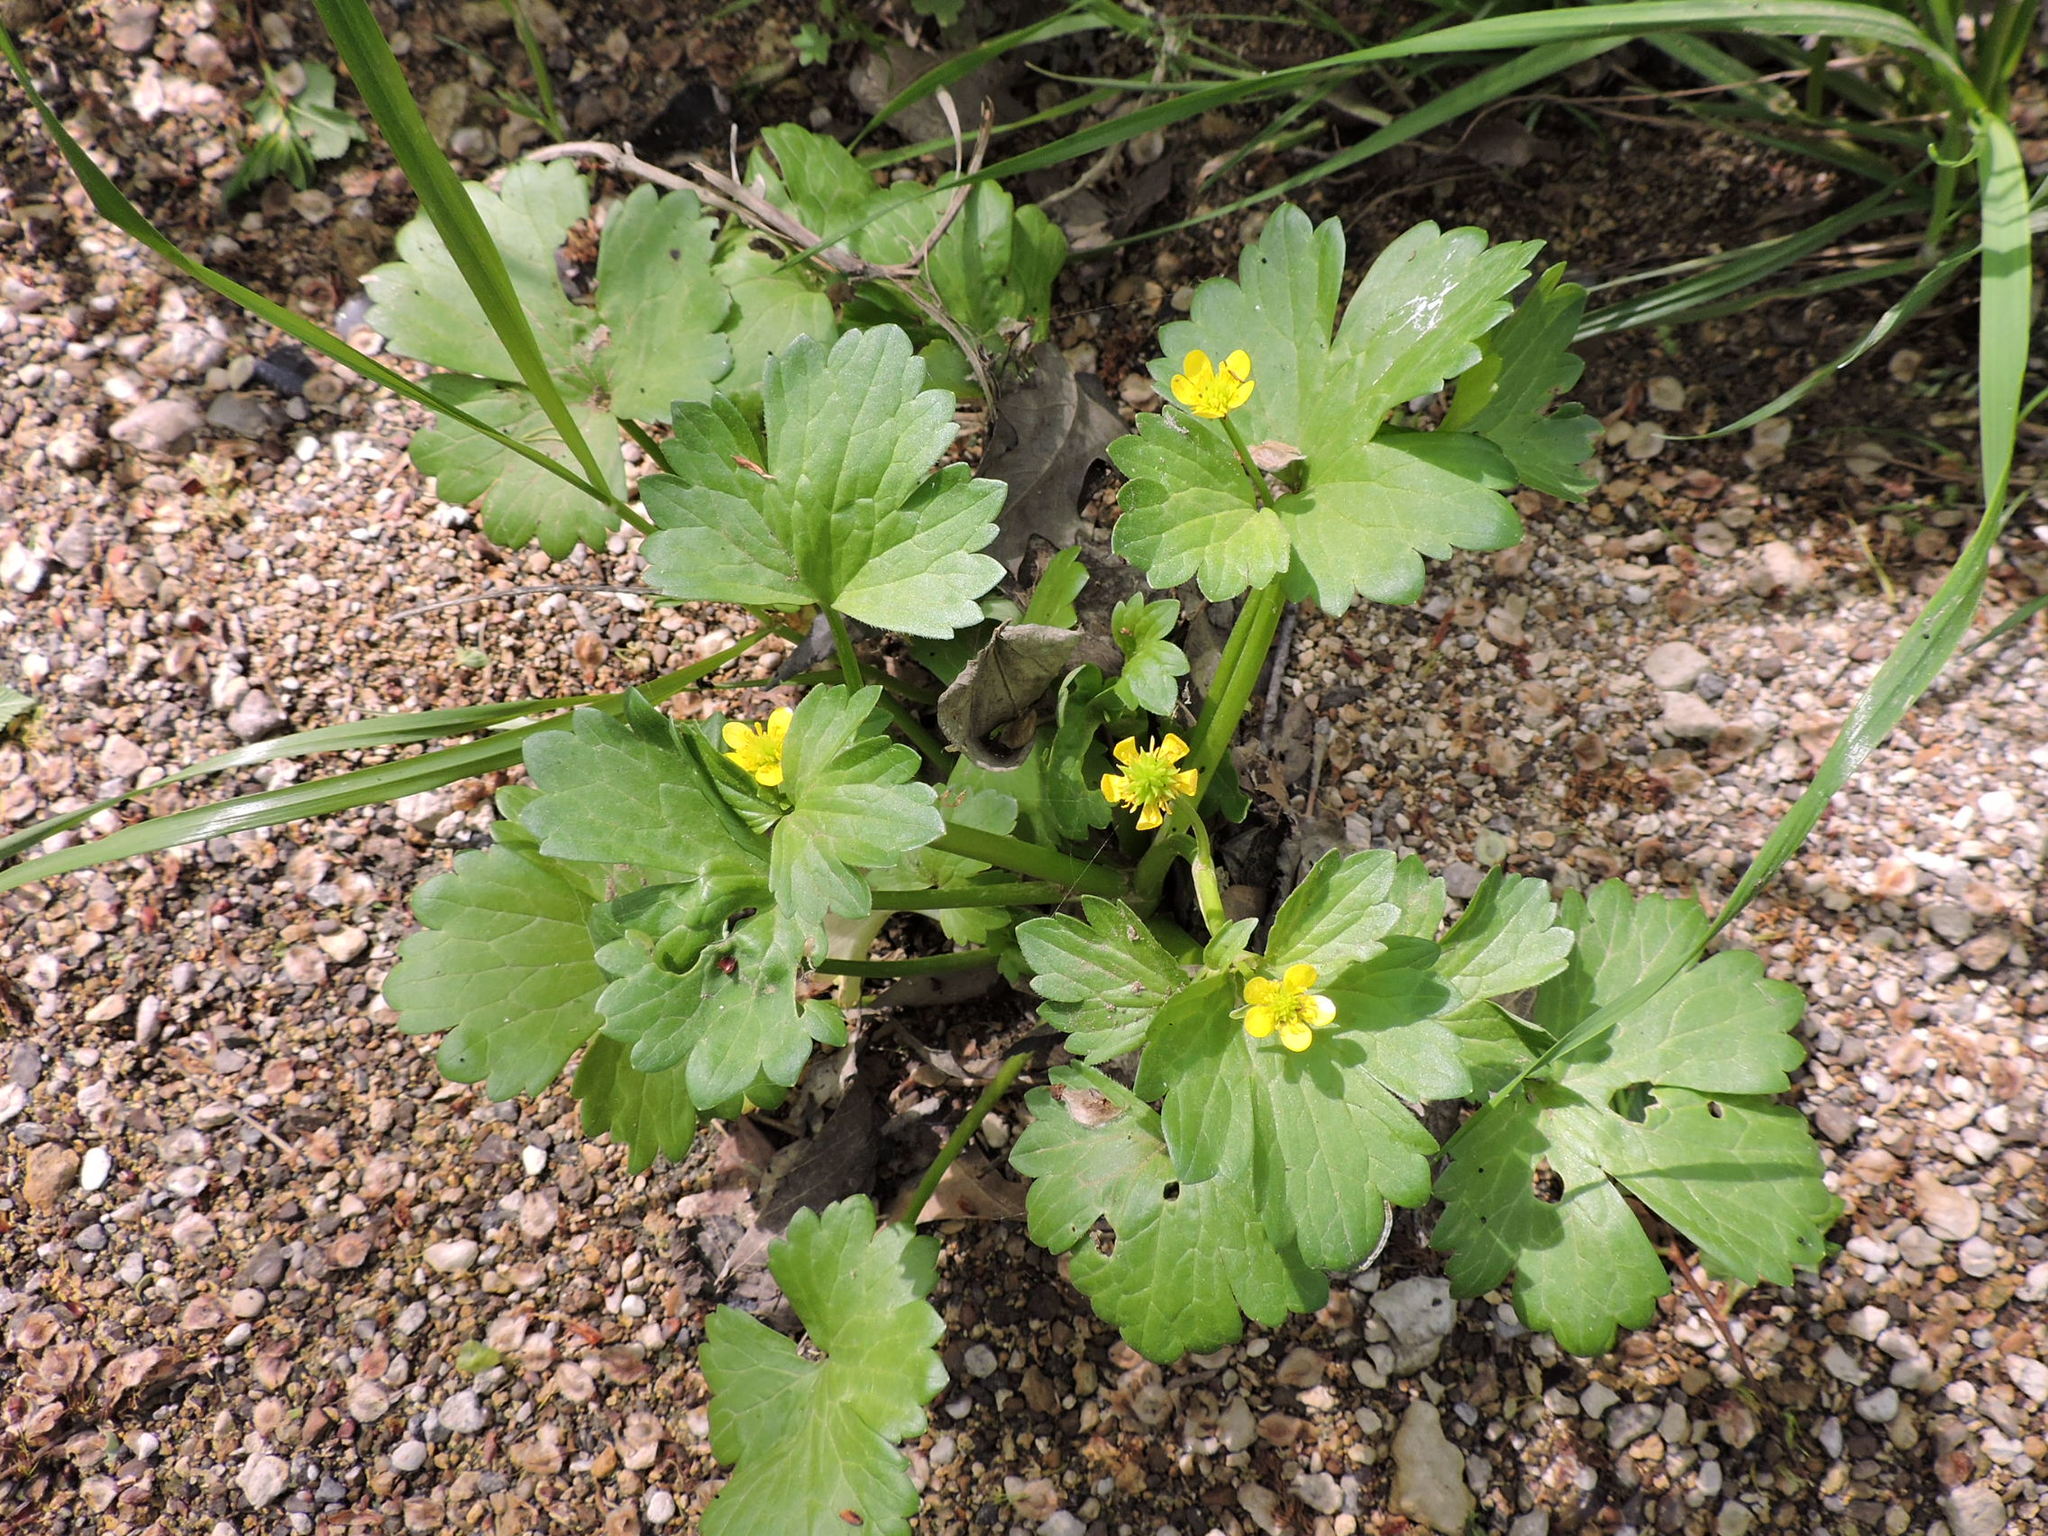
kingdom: Plantae
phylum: Tracheophyta
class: Magnoliopsida
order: Ranunculales
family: Ranunculaceae
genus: Ranunculus
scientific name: Ranunculus sceleratus
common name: Celery-leaved buttercup
